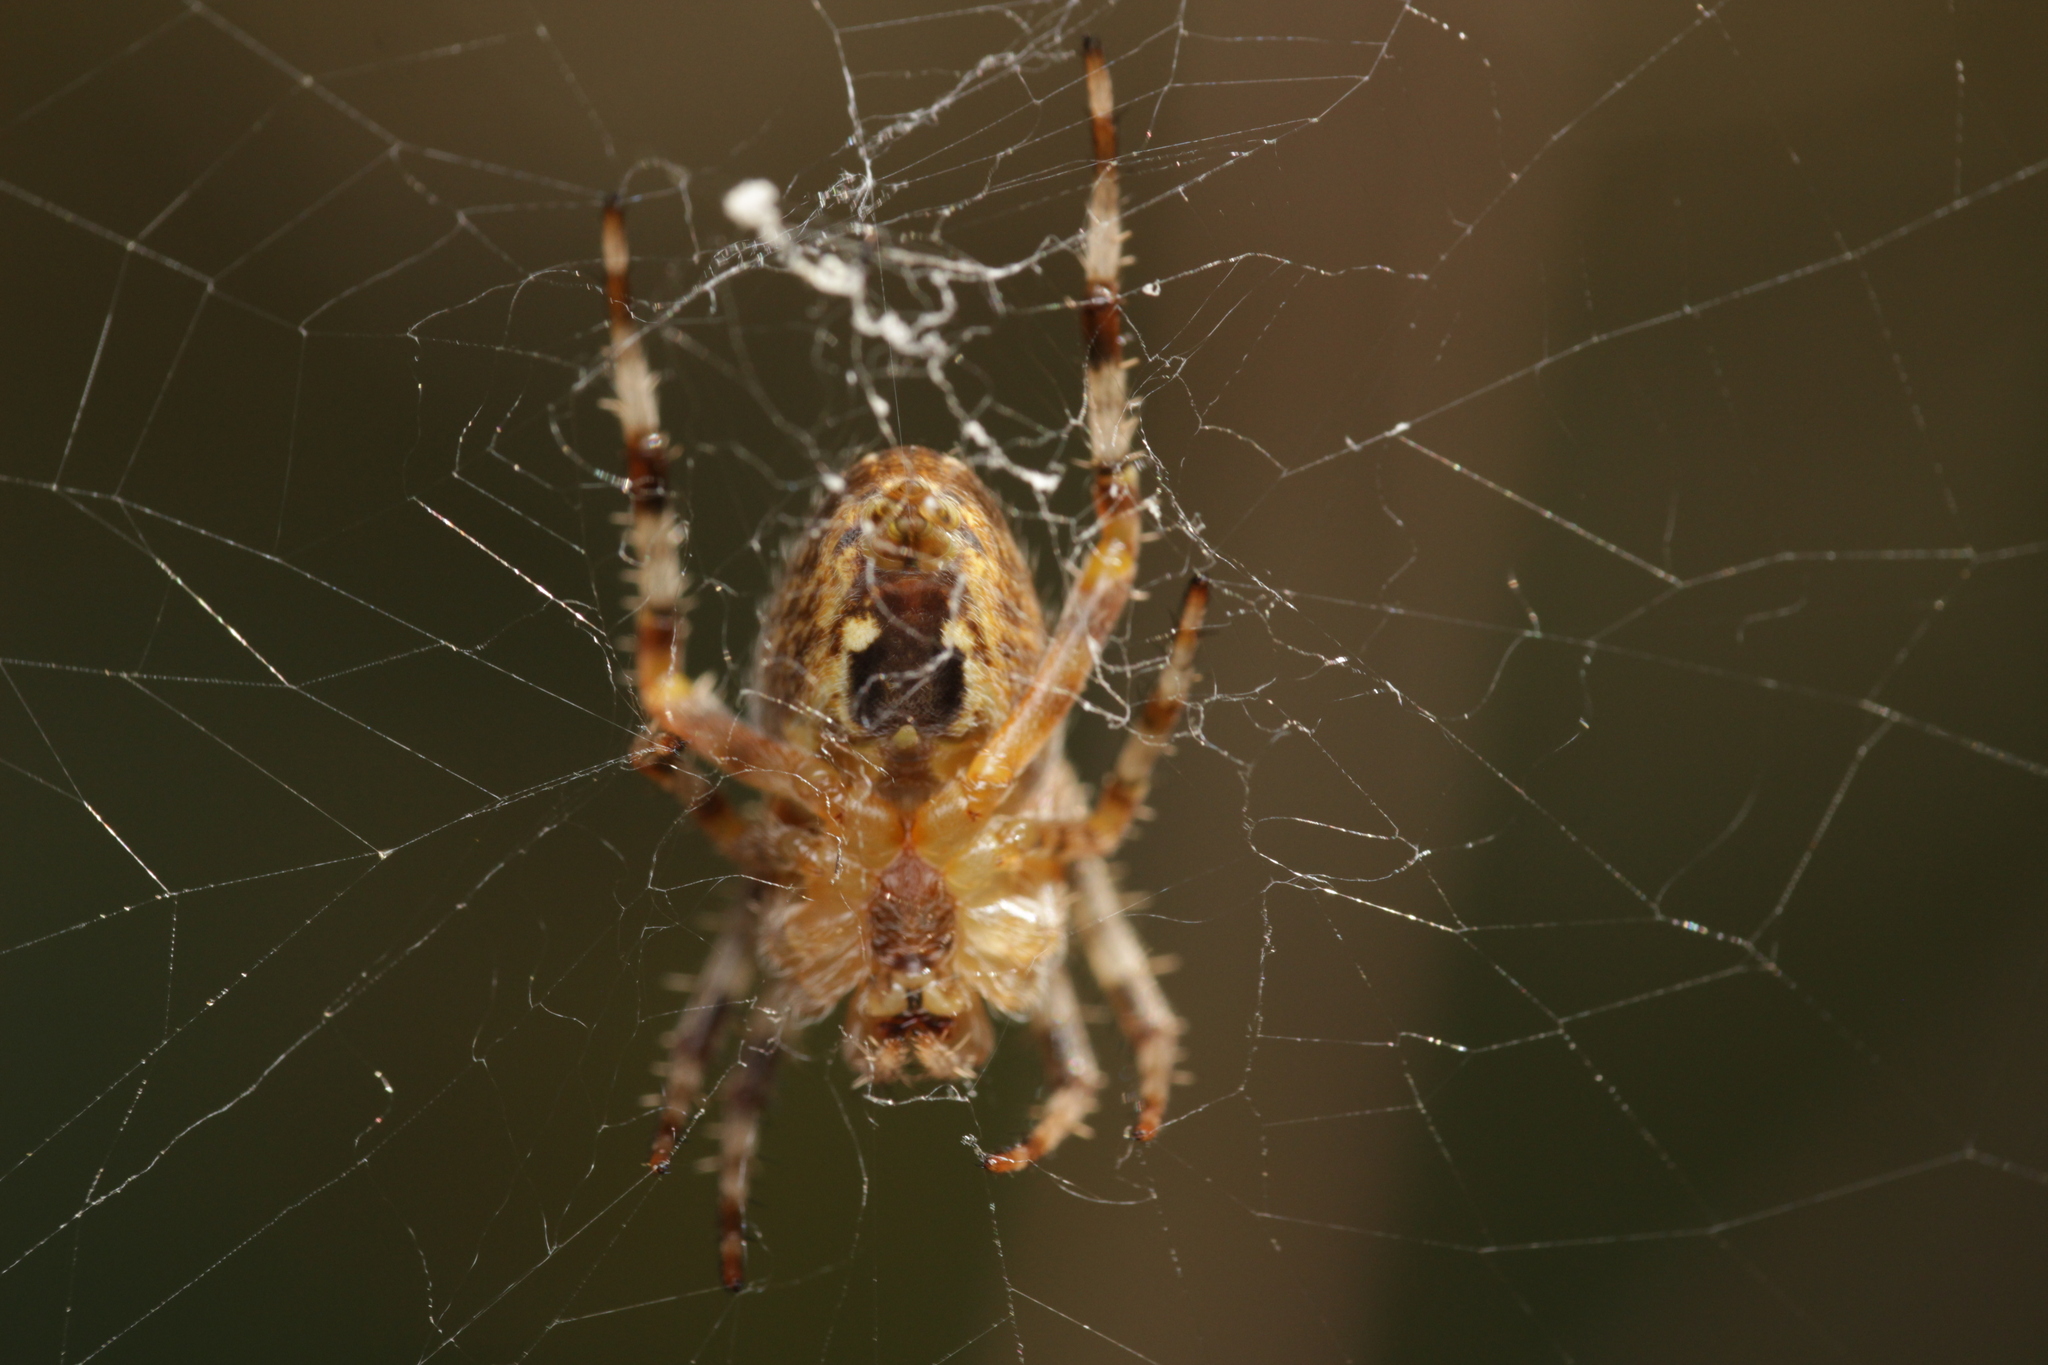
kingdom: Animalia
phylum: Arthropoda
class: Arachnida
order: Araneae
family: Araneidae
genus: Araneus
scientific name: Araneus diadematus
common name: Cross orbweaver
